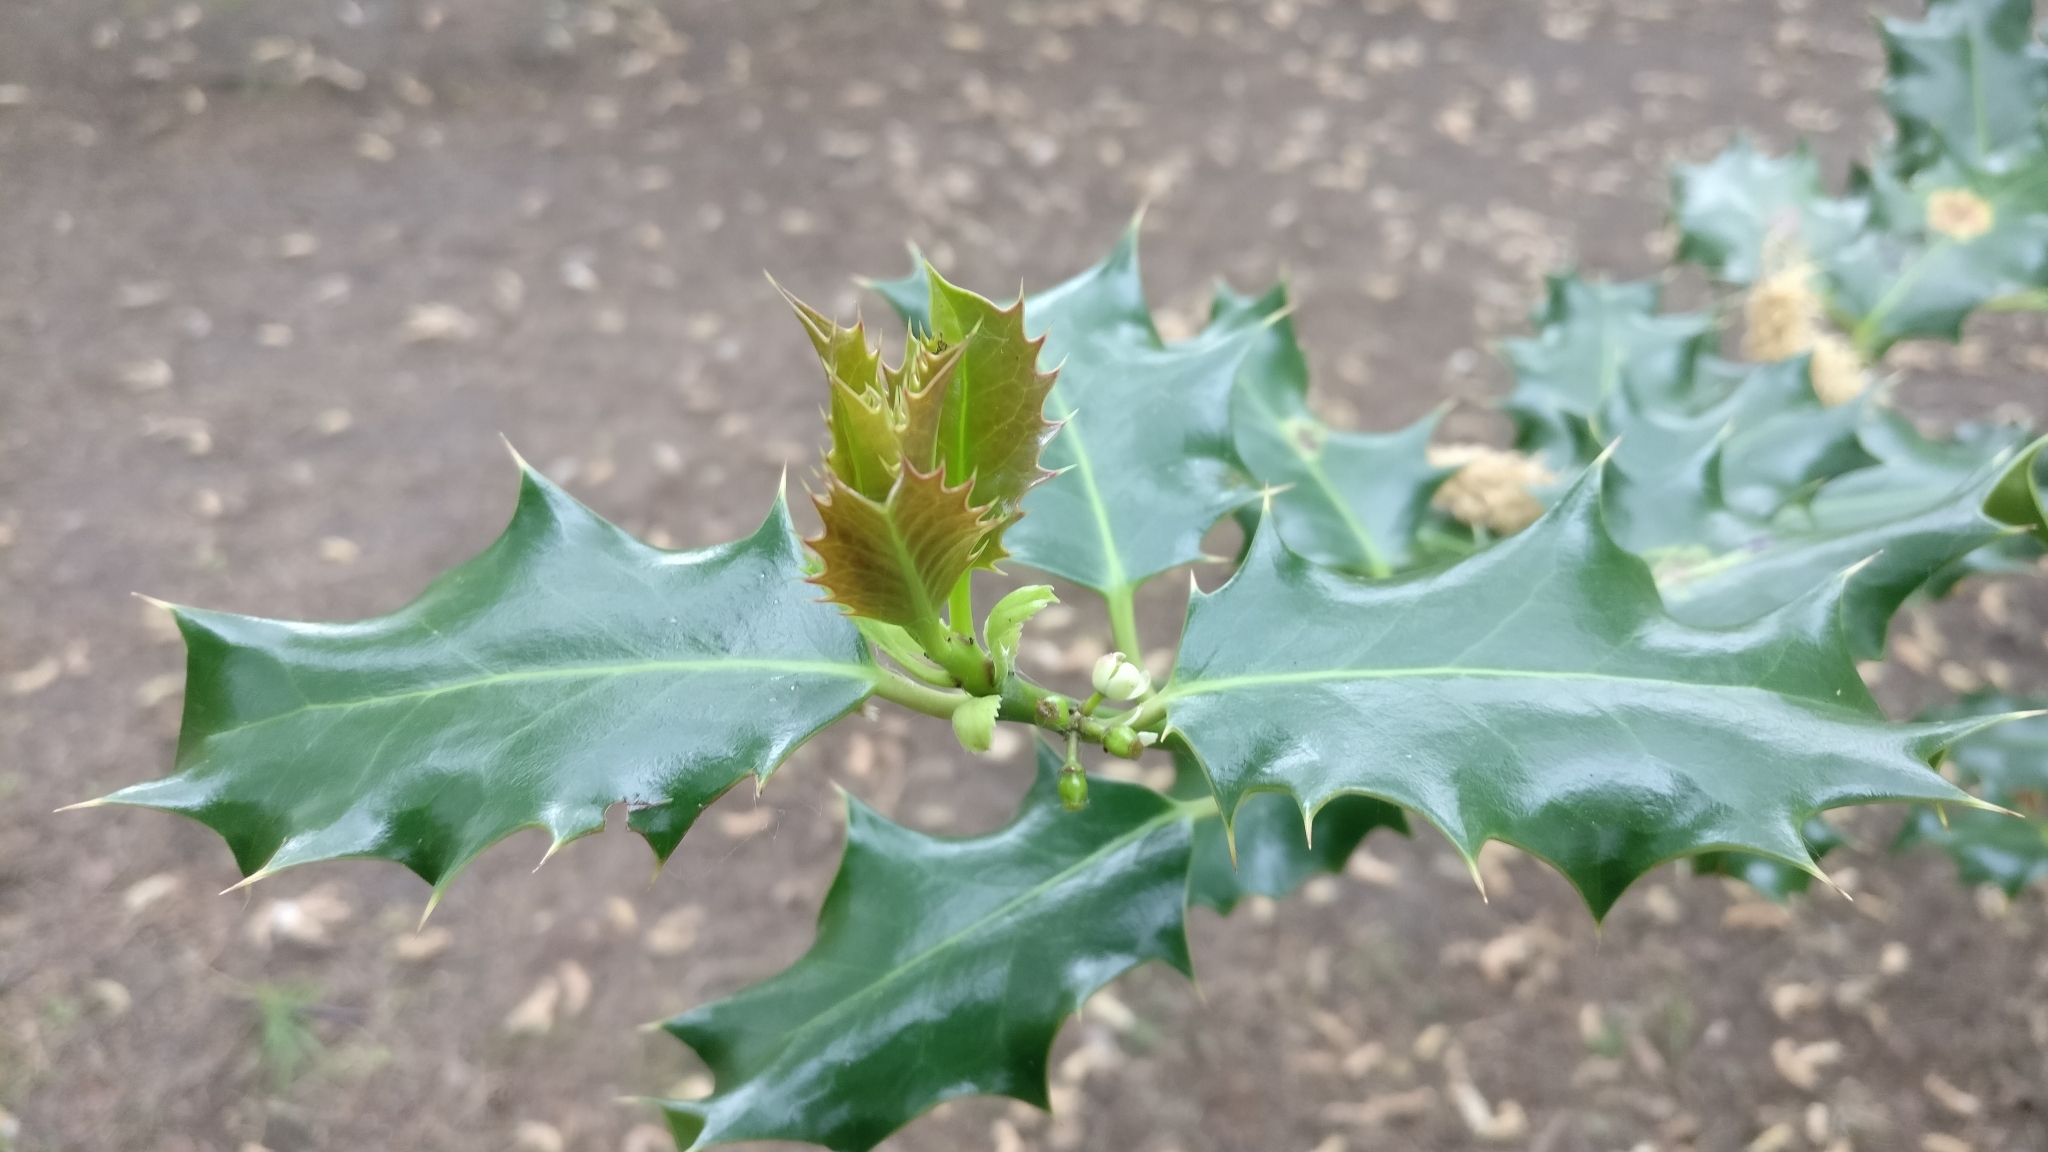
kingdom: Plantae
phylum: Tracheophyta
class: Magnoliopsida
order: Aquifoliales
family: Aquifoliaceae
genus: Ilex
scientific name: Ilex aquifolium
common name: English holly
